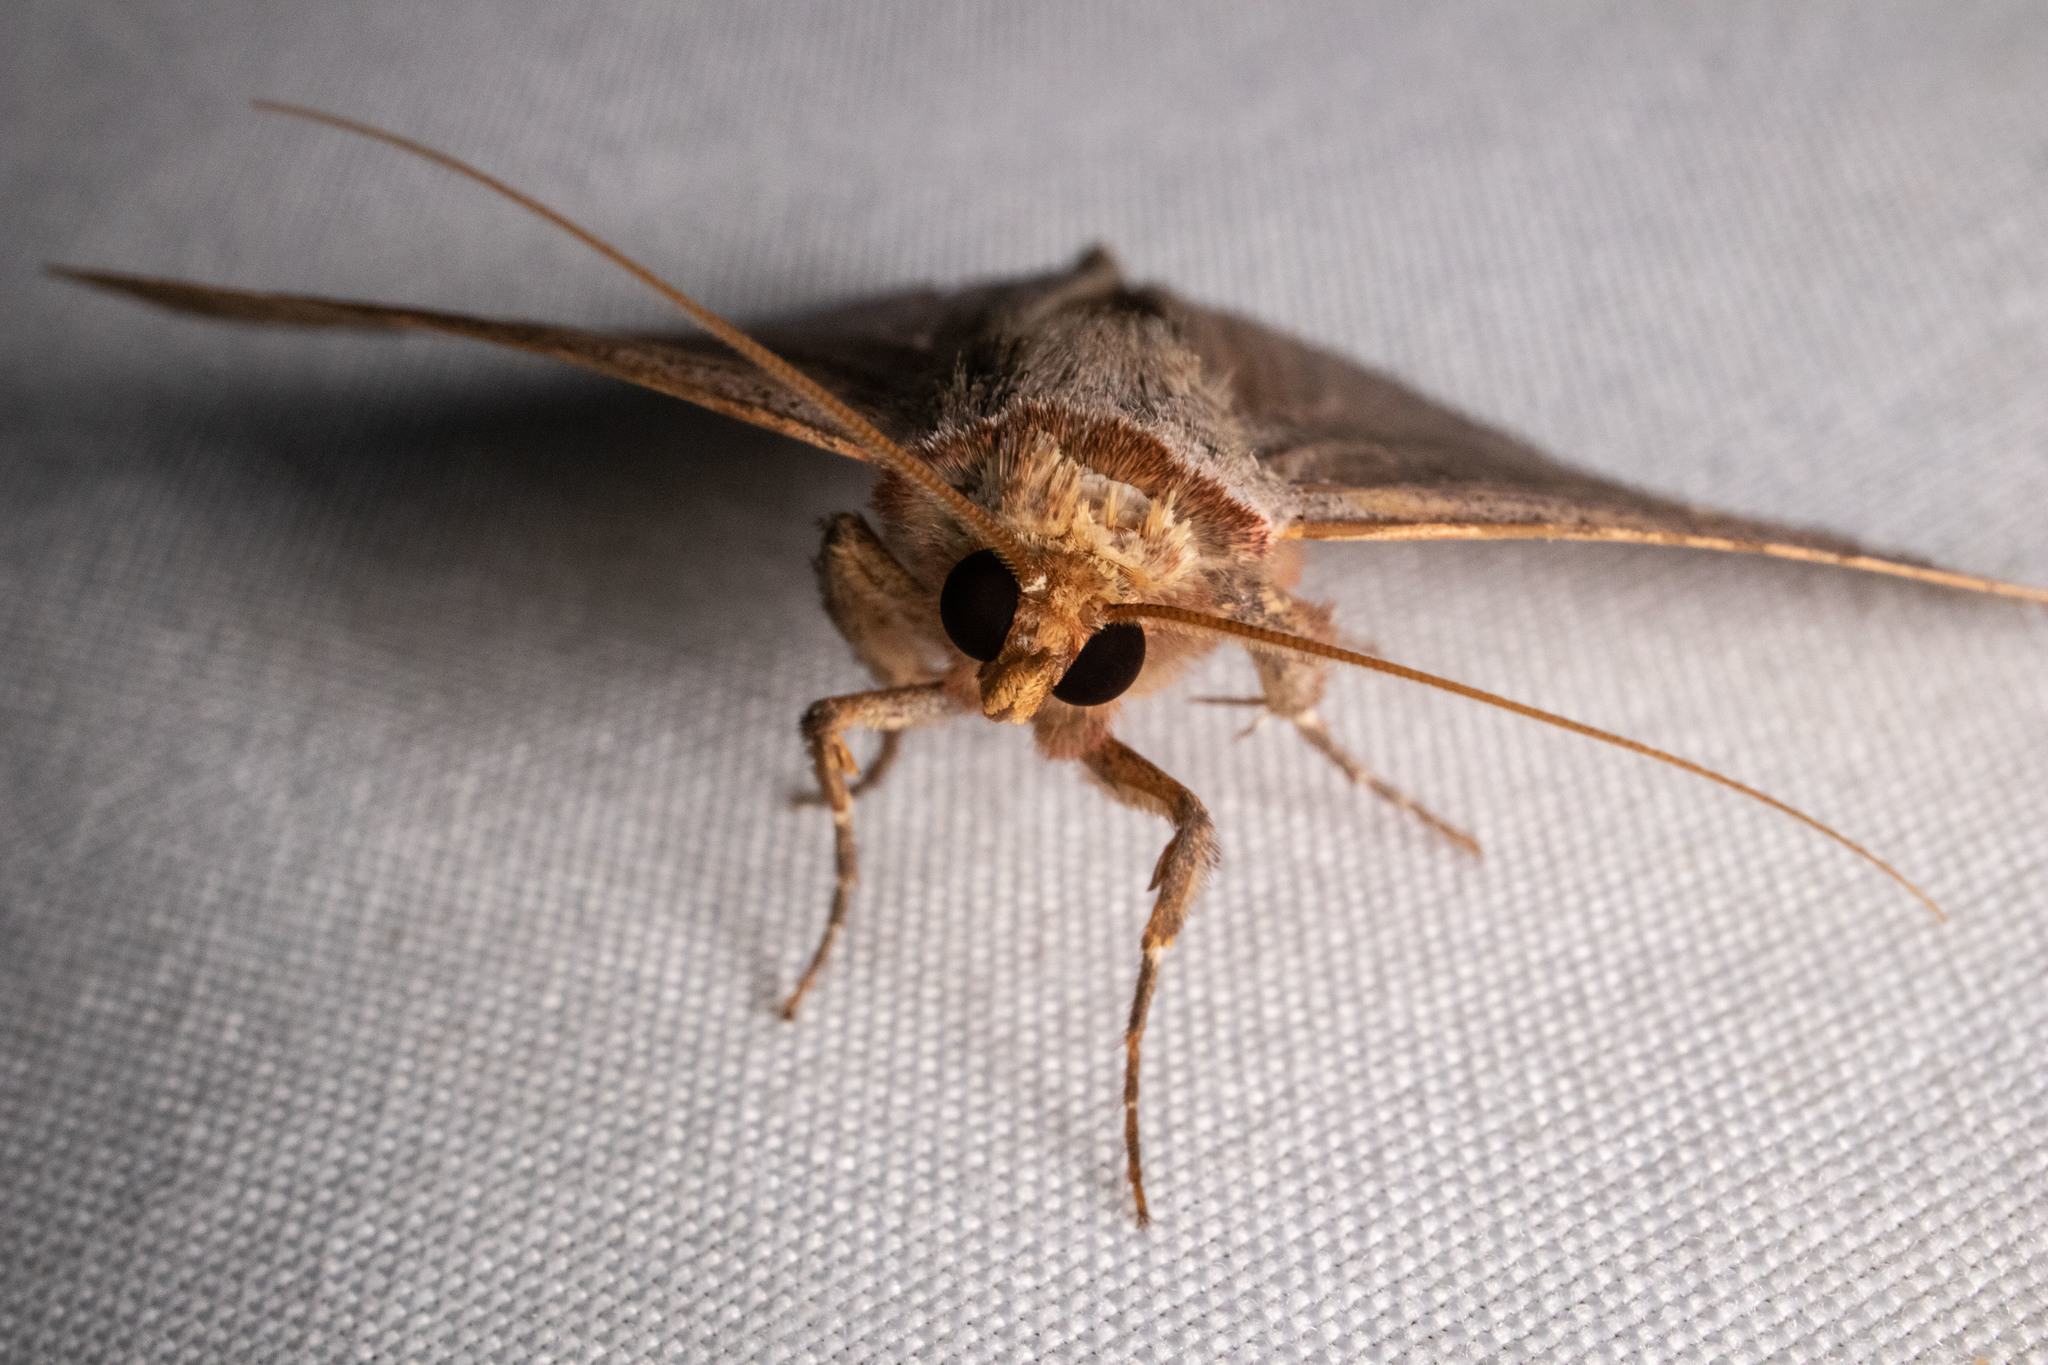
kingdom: Animalia
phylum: Arthropoda
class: Insecta
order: Lepidoptera
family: Erebidae
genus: Panopoda
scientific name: Panopoda rufimargo
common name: Red-lined panopoda moth
